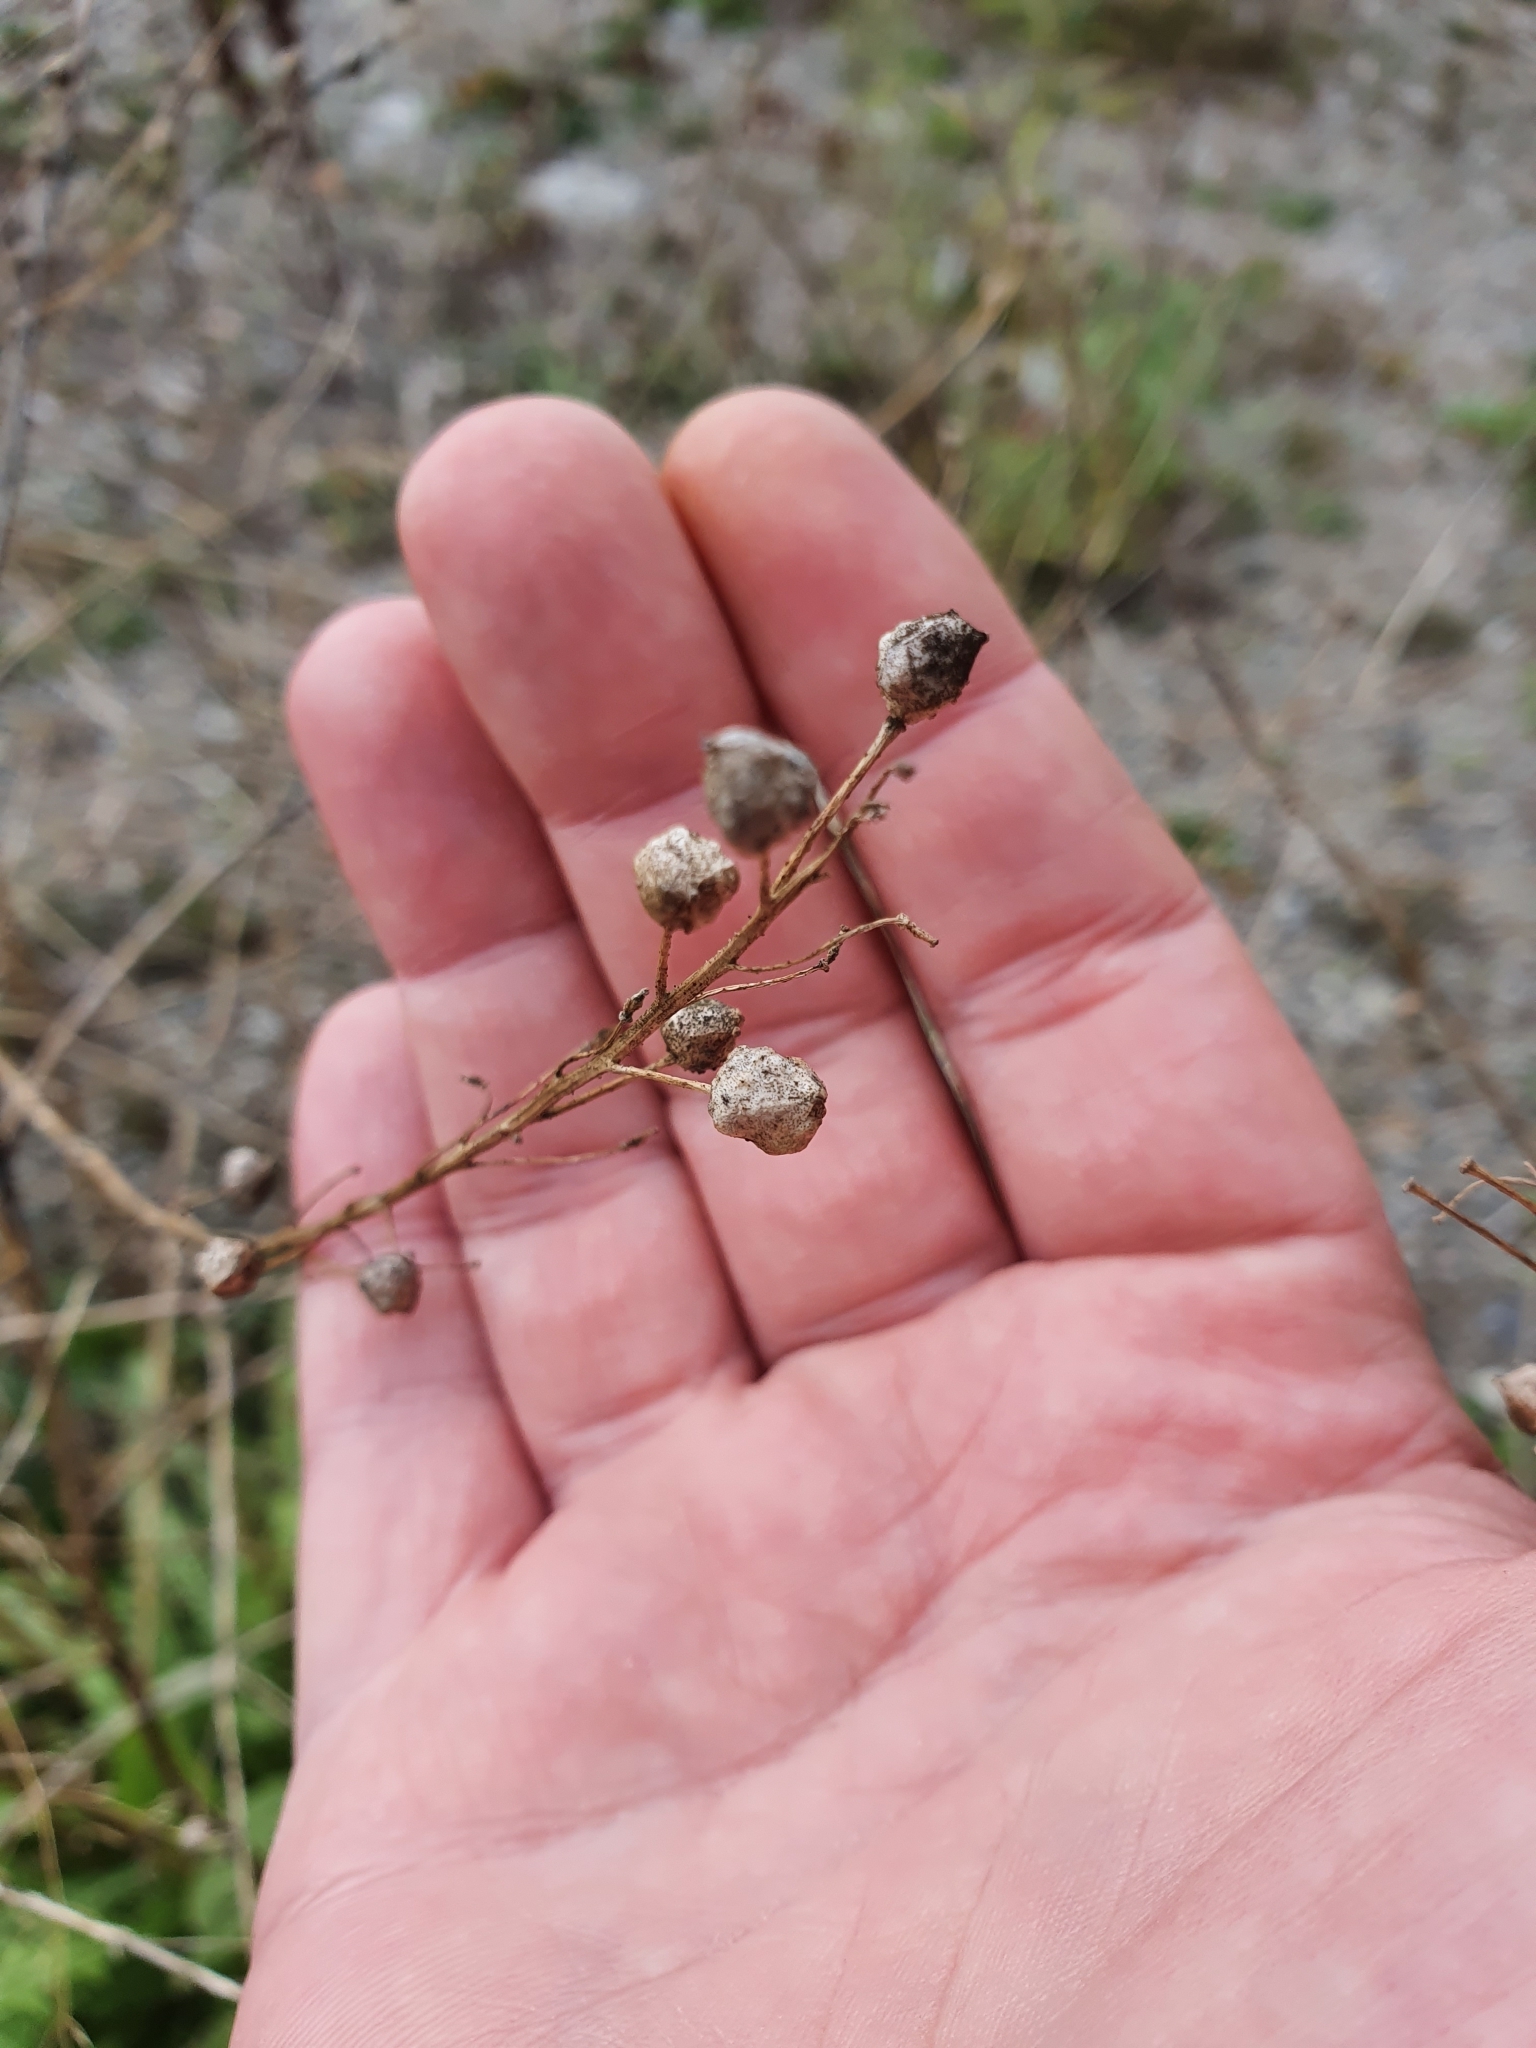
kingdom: Plantae
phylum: Tracheophyta
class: Magnoliopsida
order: Brassicales
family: Brassicaceae
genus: Bunias
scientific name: Bunias orientalis
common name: Warty-cabbage
